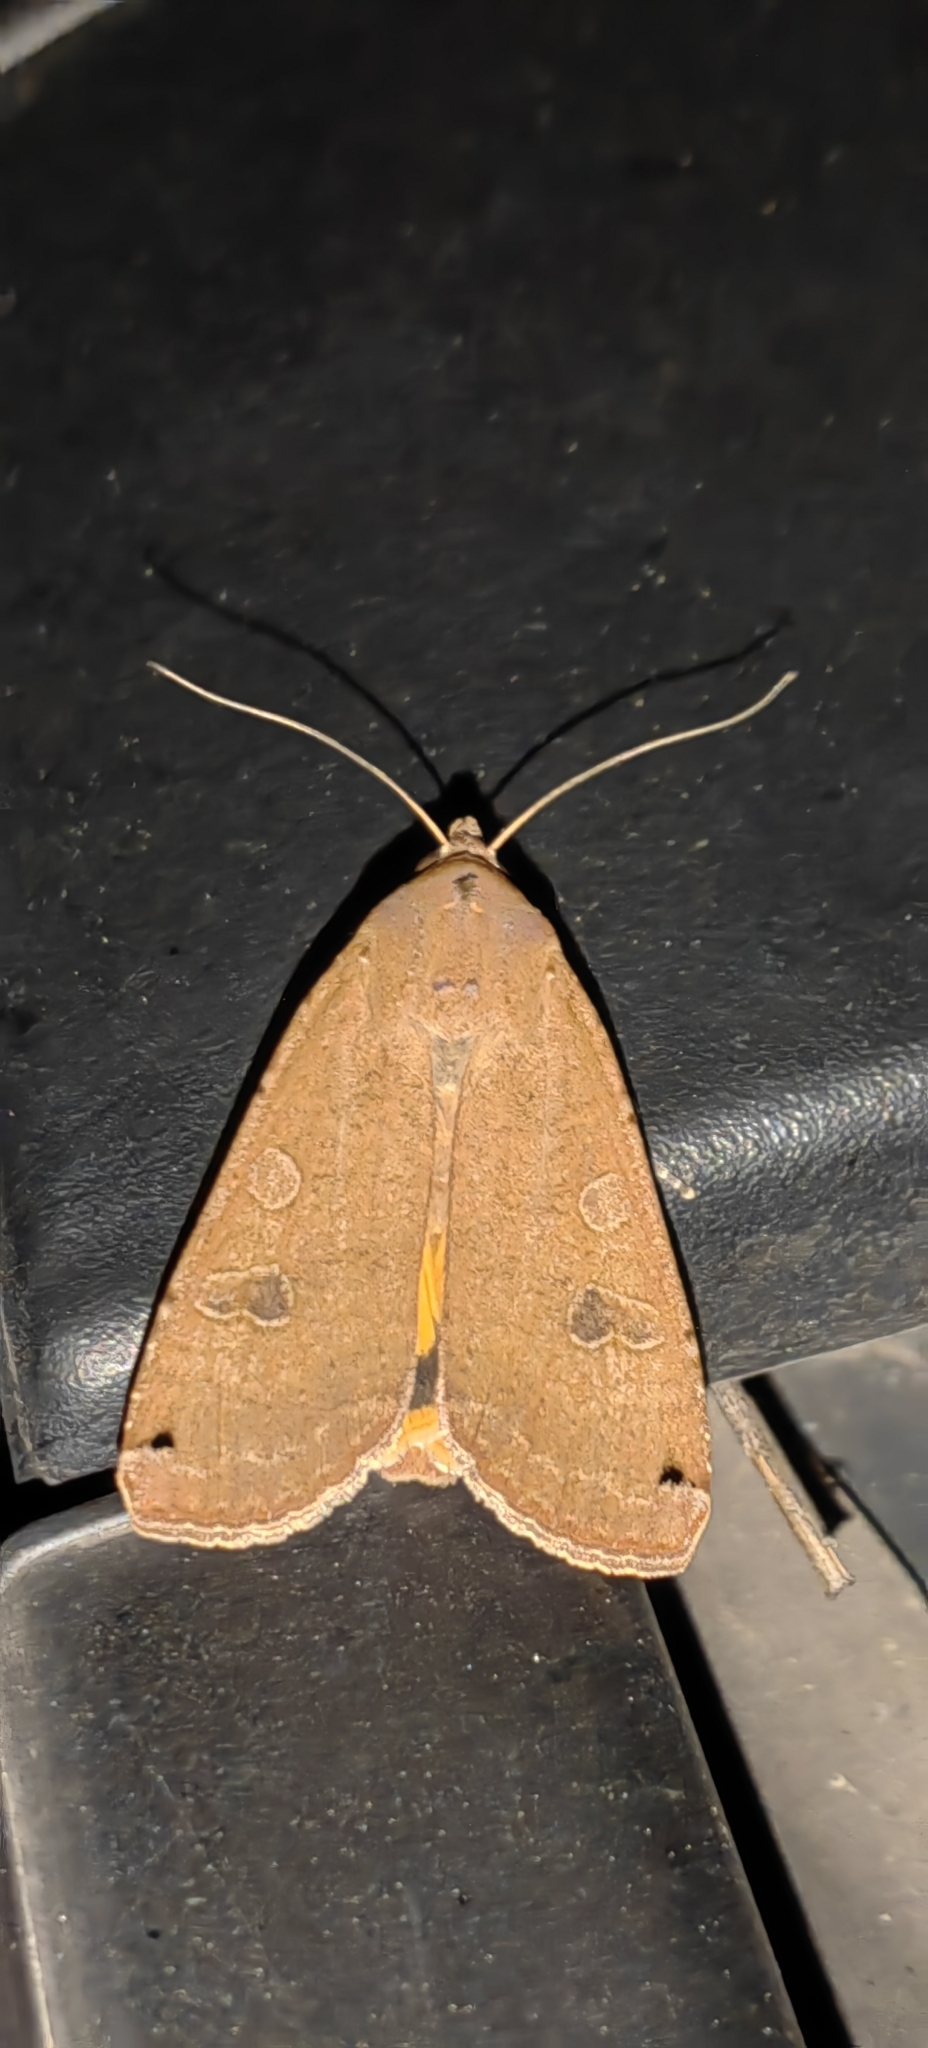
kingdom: Animalia
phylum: Arthropoda
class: Insecta
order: Lepidoptera
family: Noctuidae
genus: Noctua
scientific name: Noctua pronuba
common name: Large yellow underwing
